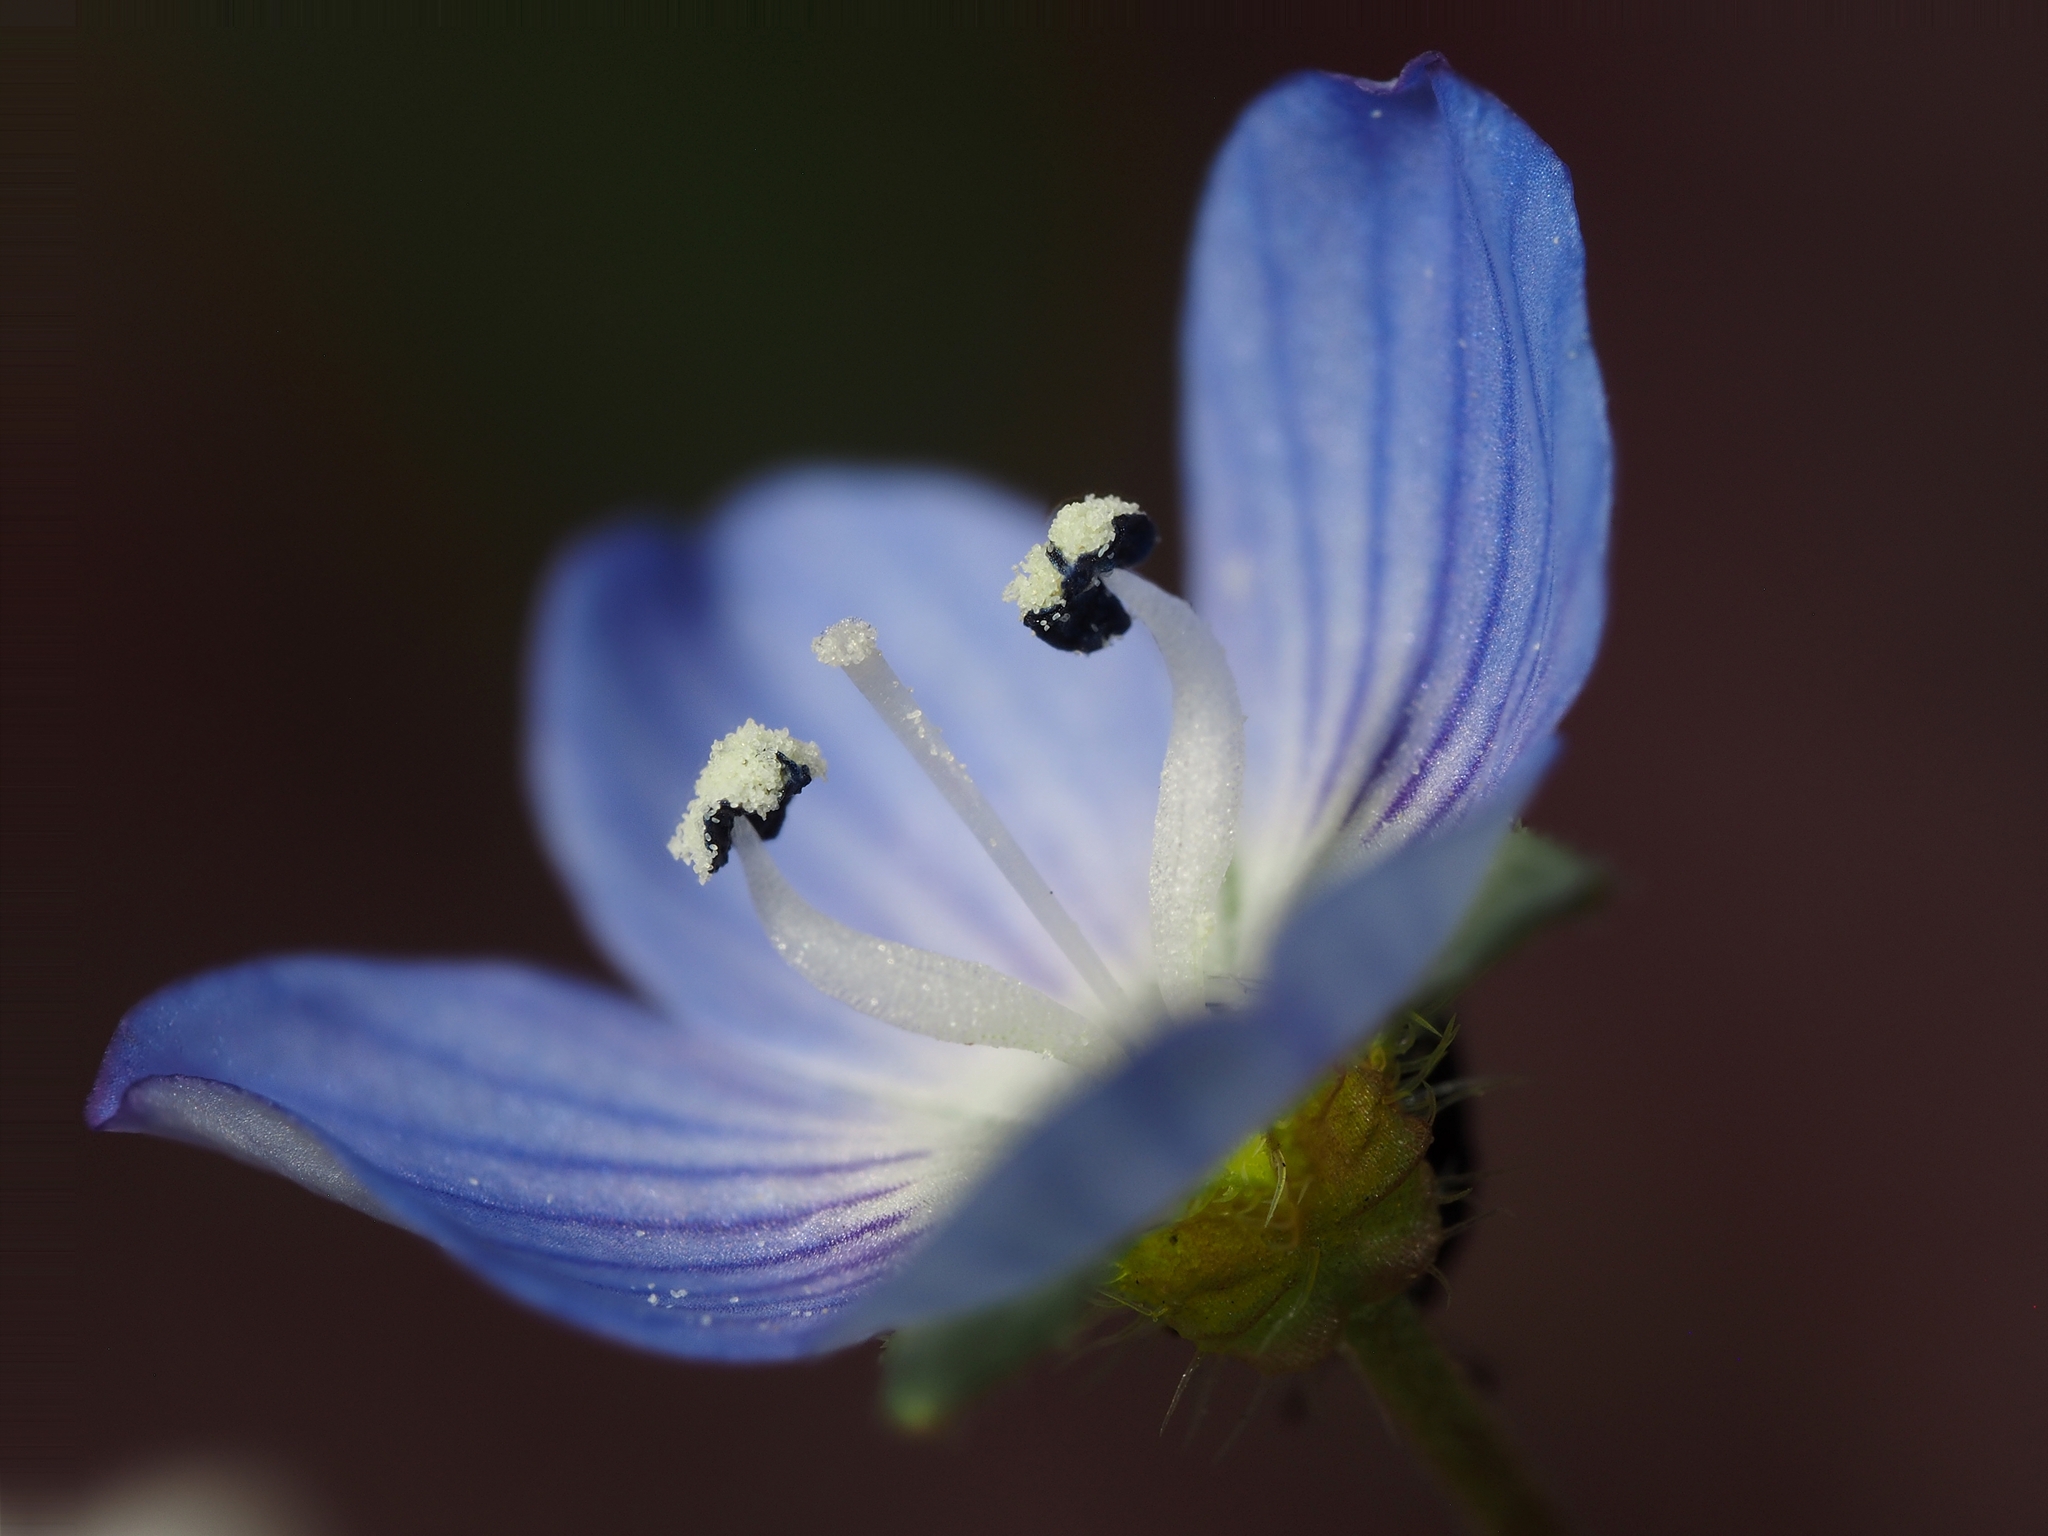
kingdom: Plantae
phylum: Tracheophyta
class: Magnoliopsida
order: Lamiales
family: Plantaginaceae
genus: Veronica
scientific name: Veronica persica
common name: Common field-speedwell
